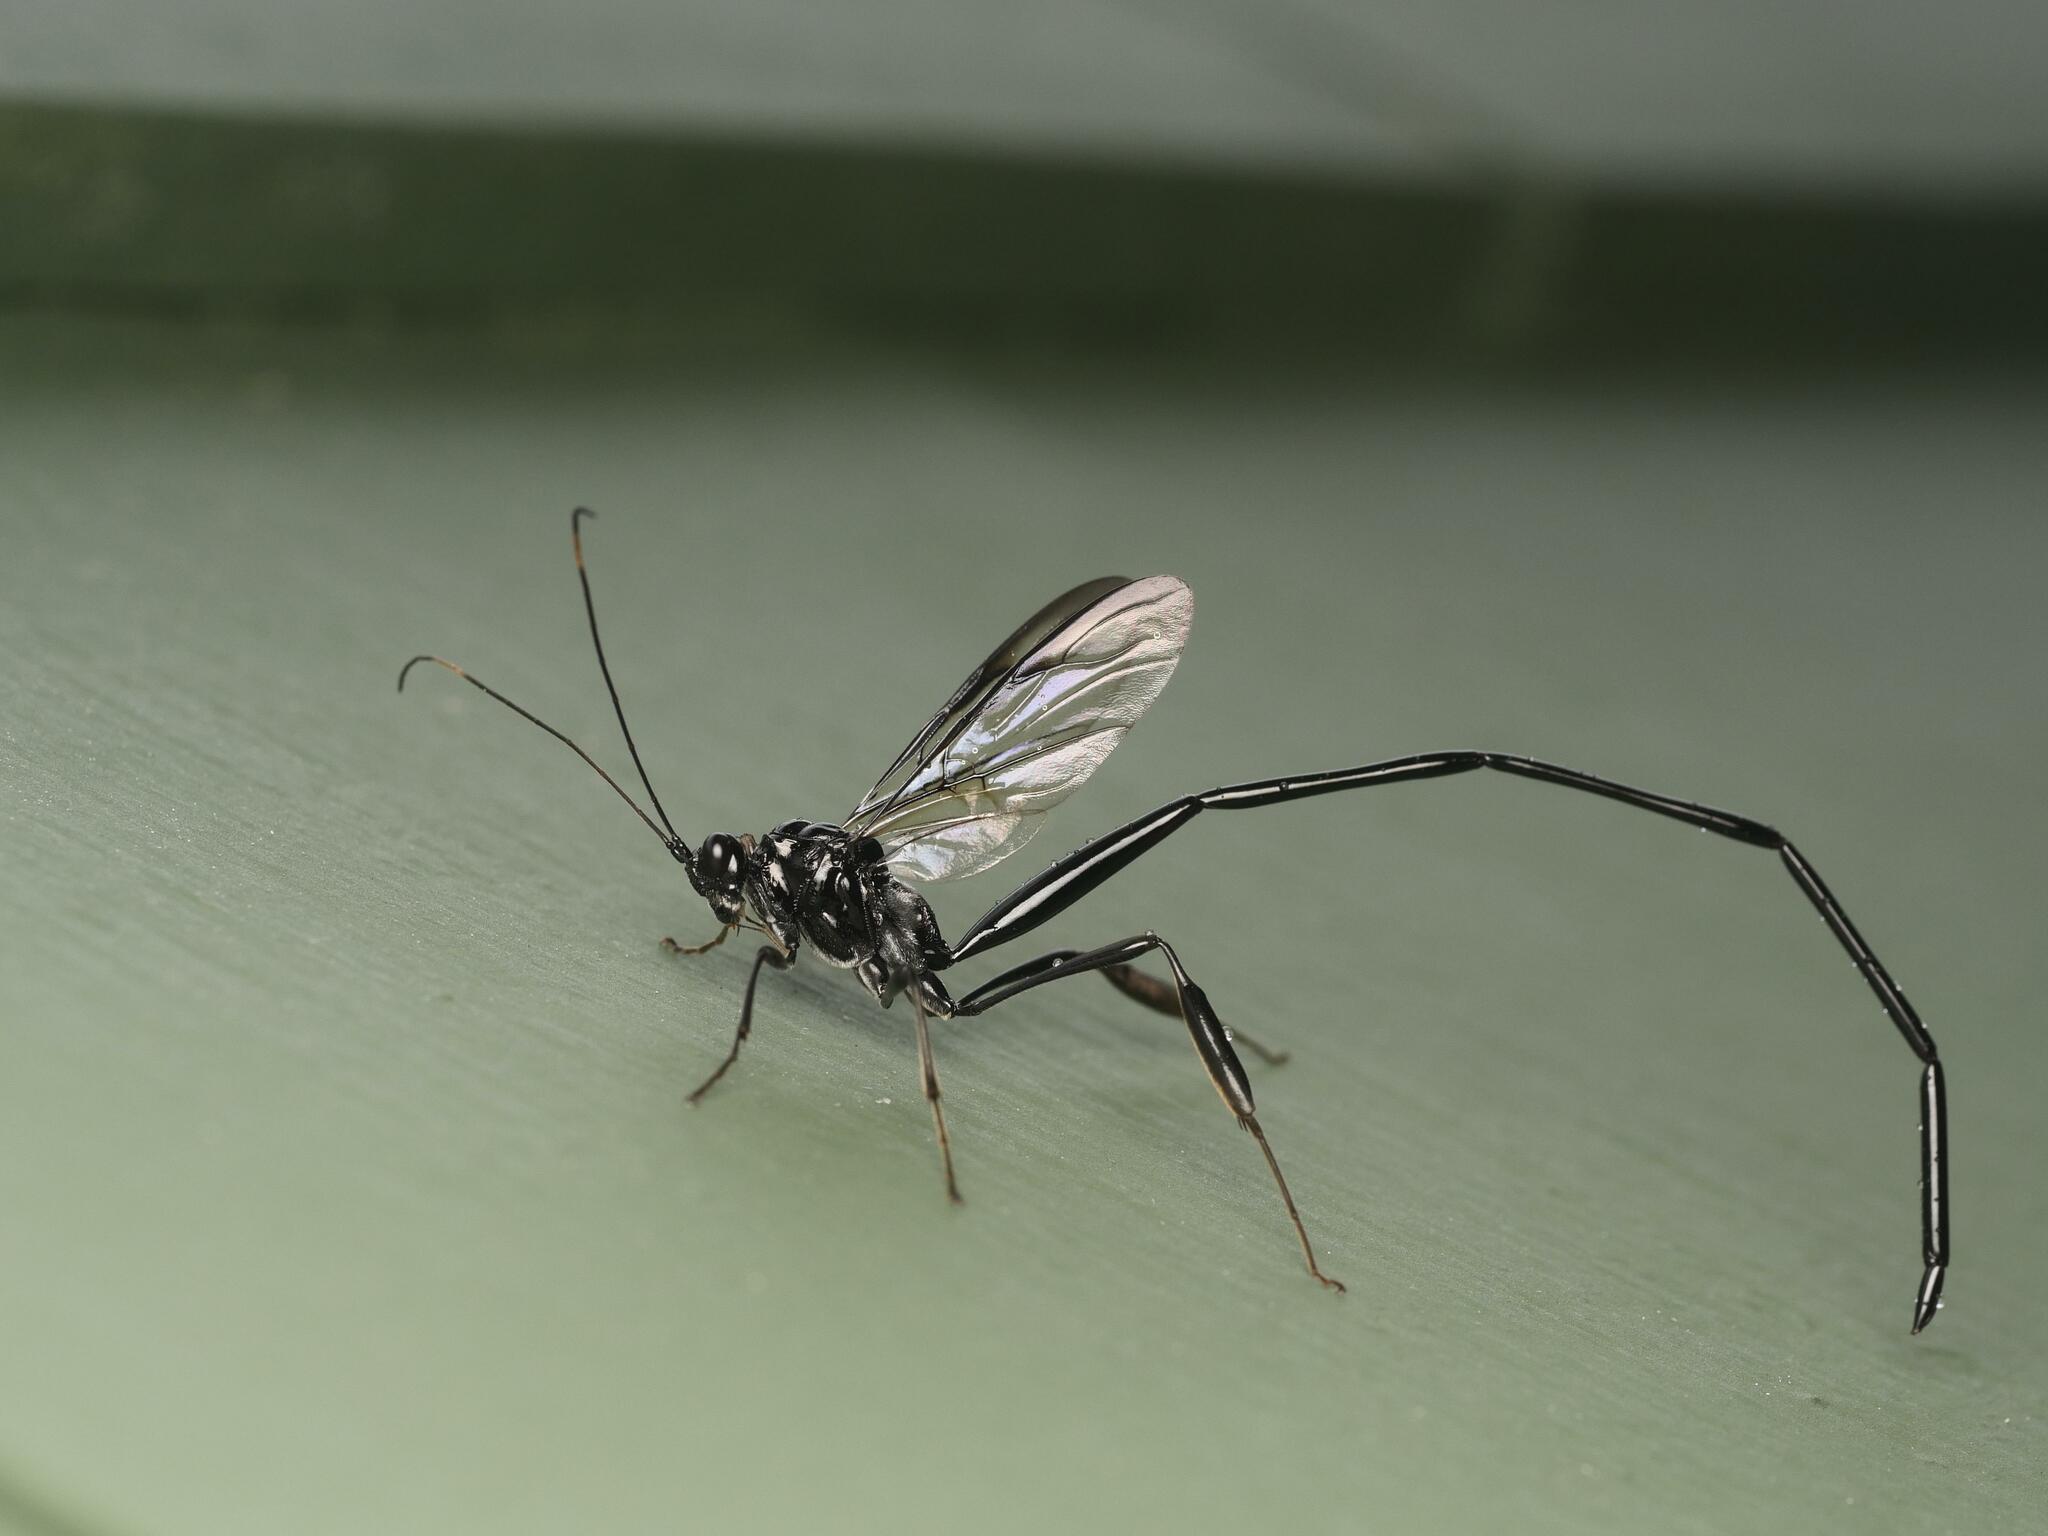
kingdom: Animalia
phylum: Arthropoda
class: Insecta
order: Hymenoptera
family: Pelecinidae
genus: Pelecinus
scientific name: Pelecinus polyturator
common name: American pelecinid wasp
